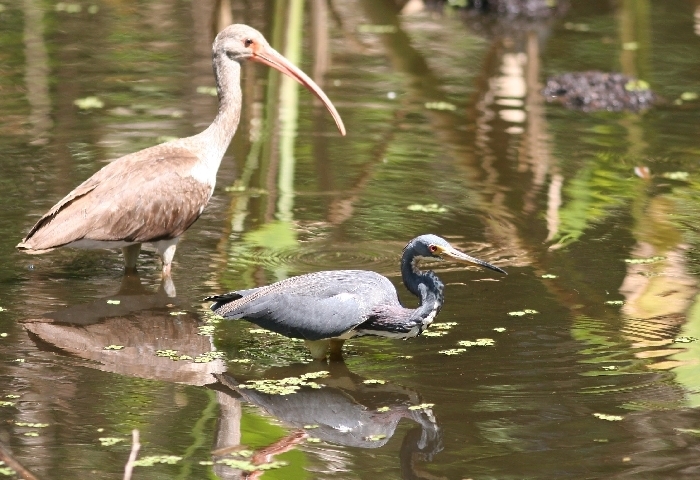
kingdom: Animalia
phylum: Chordata
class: Aves
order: Pelecaniformes
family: Threskiornithidae
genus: Eudocimus
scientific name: Eudocimus albus
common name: White ibis
